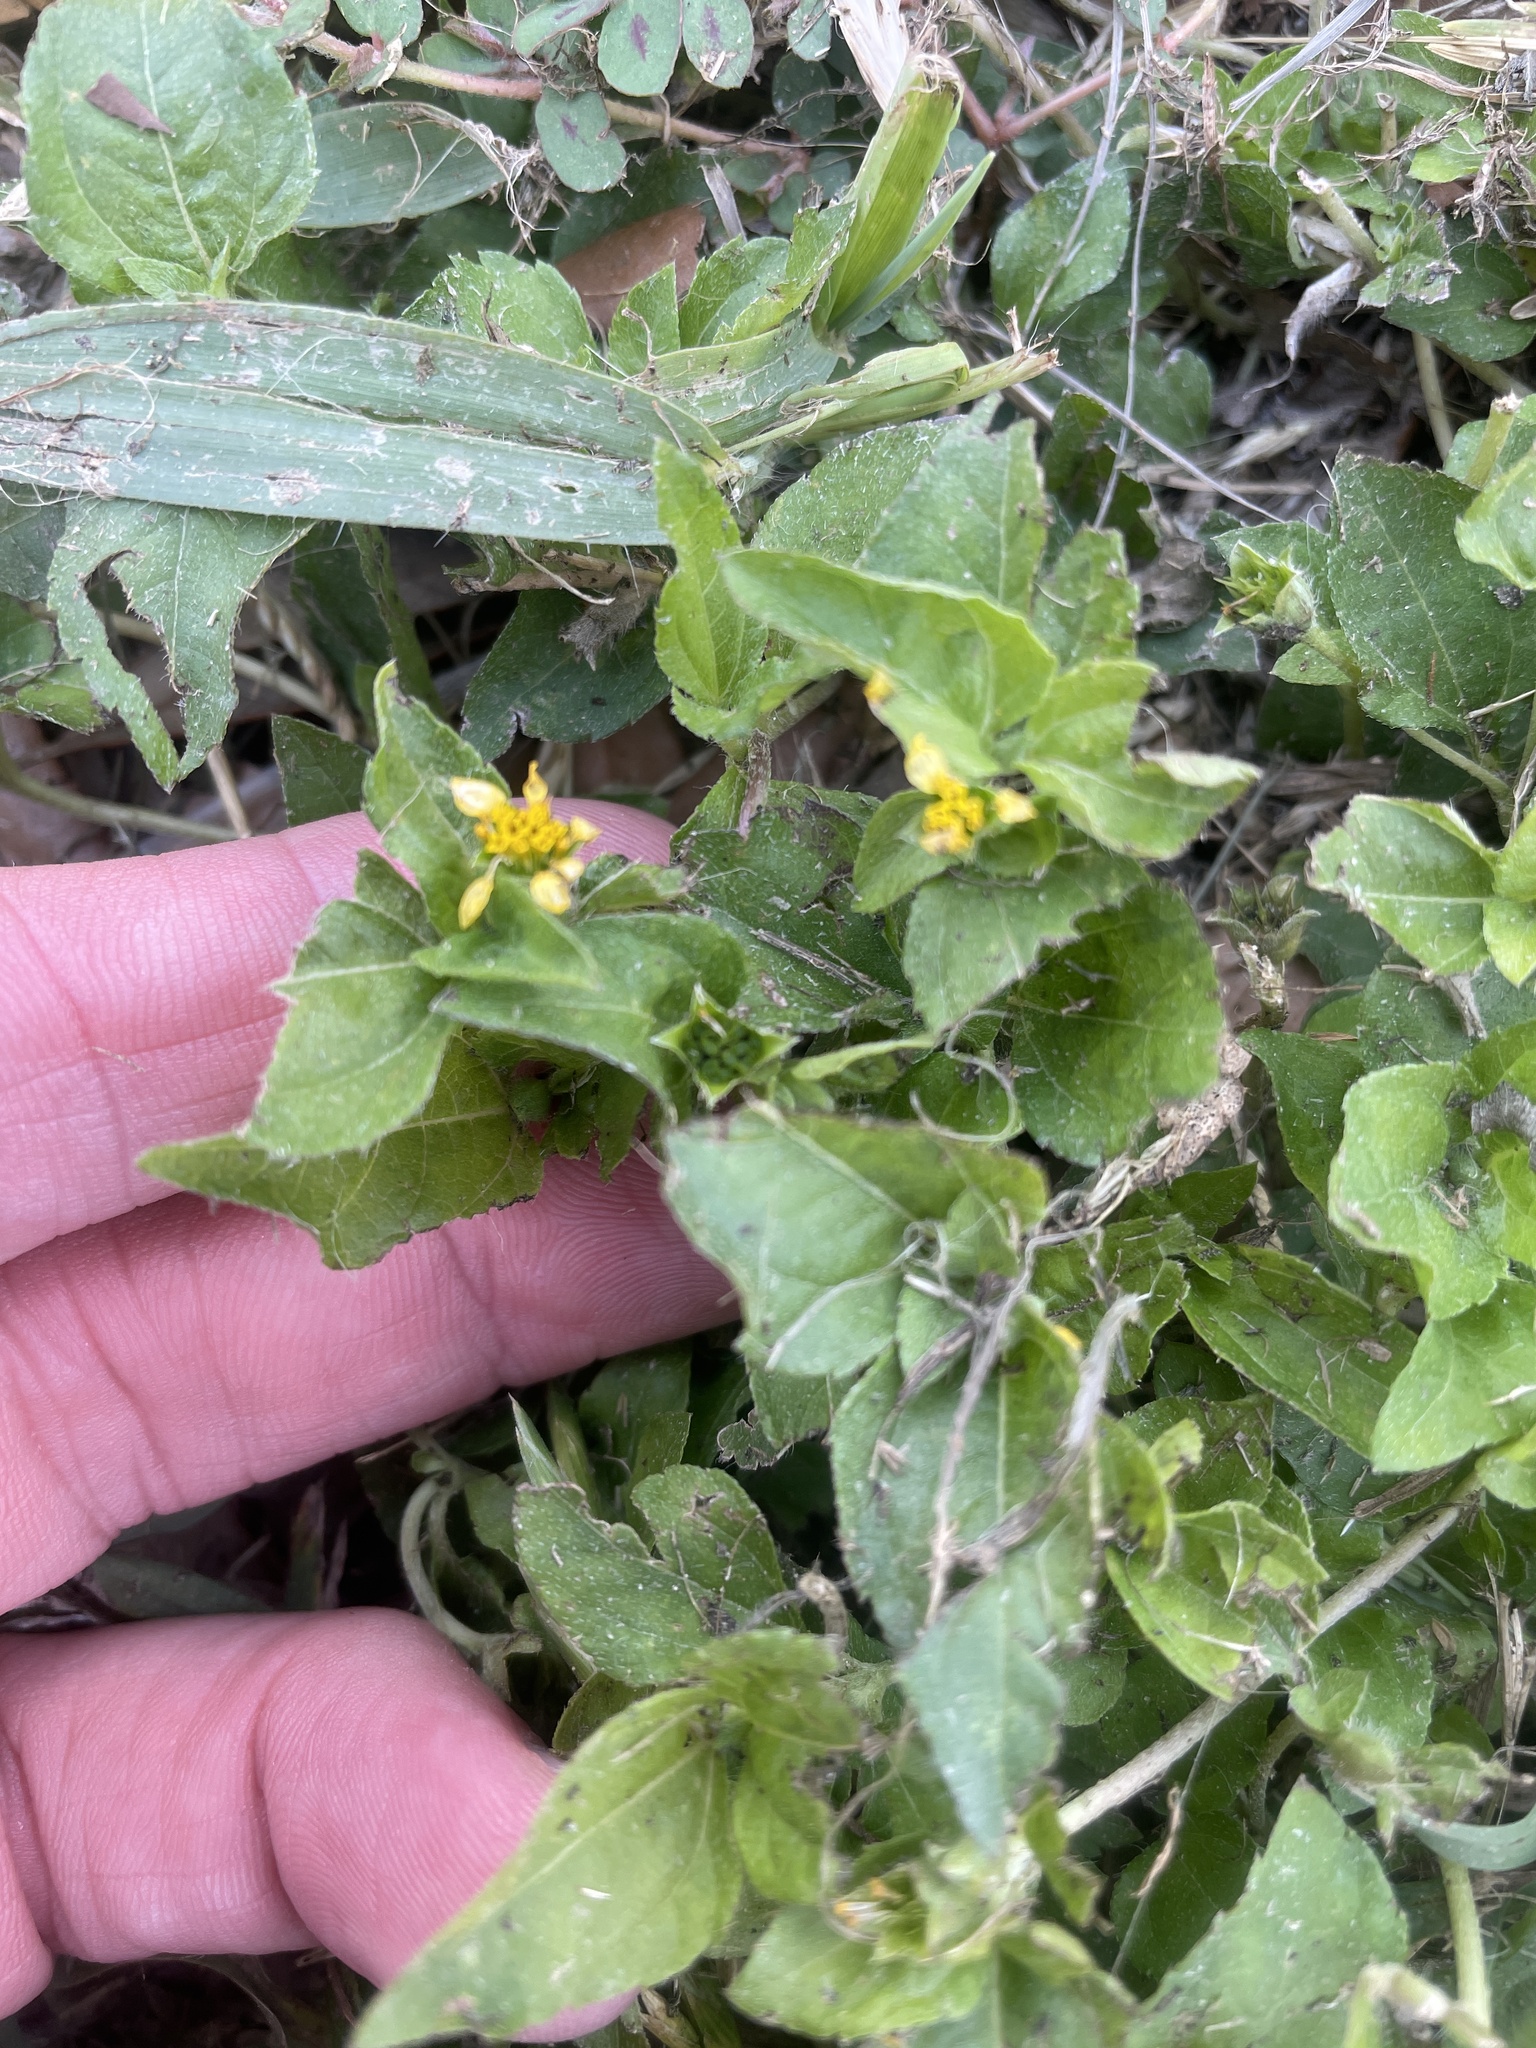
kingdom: Plantae
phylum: Tracheophyta
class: Magnoliopsida
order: Asterales
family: Asteraceae
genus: Calyptocarpus
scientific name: Calyptocarpus vialis
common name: Straggler daisy
